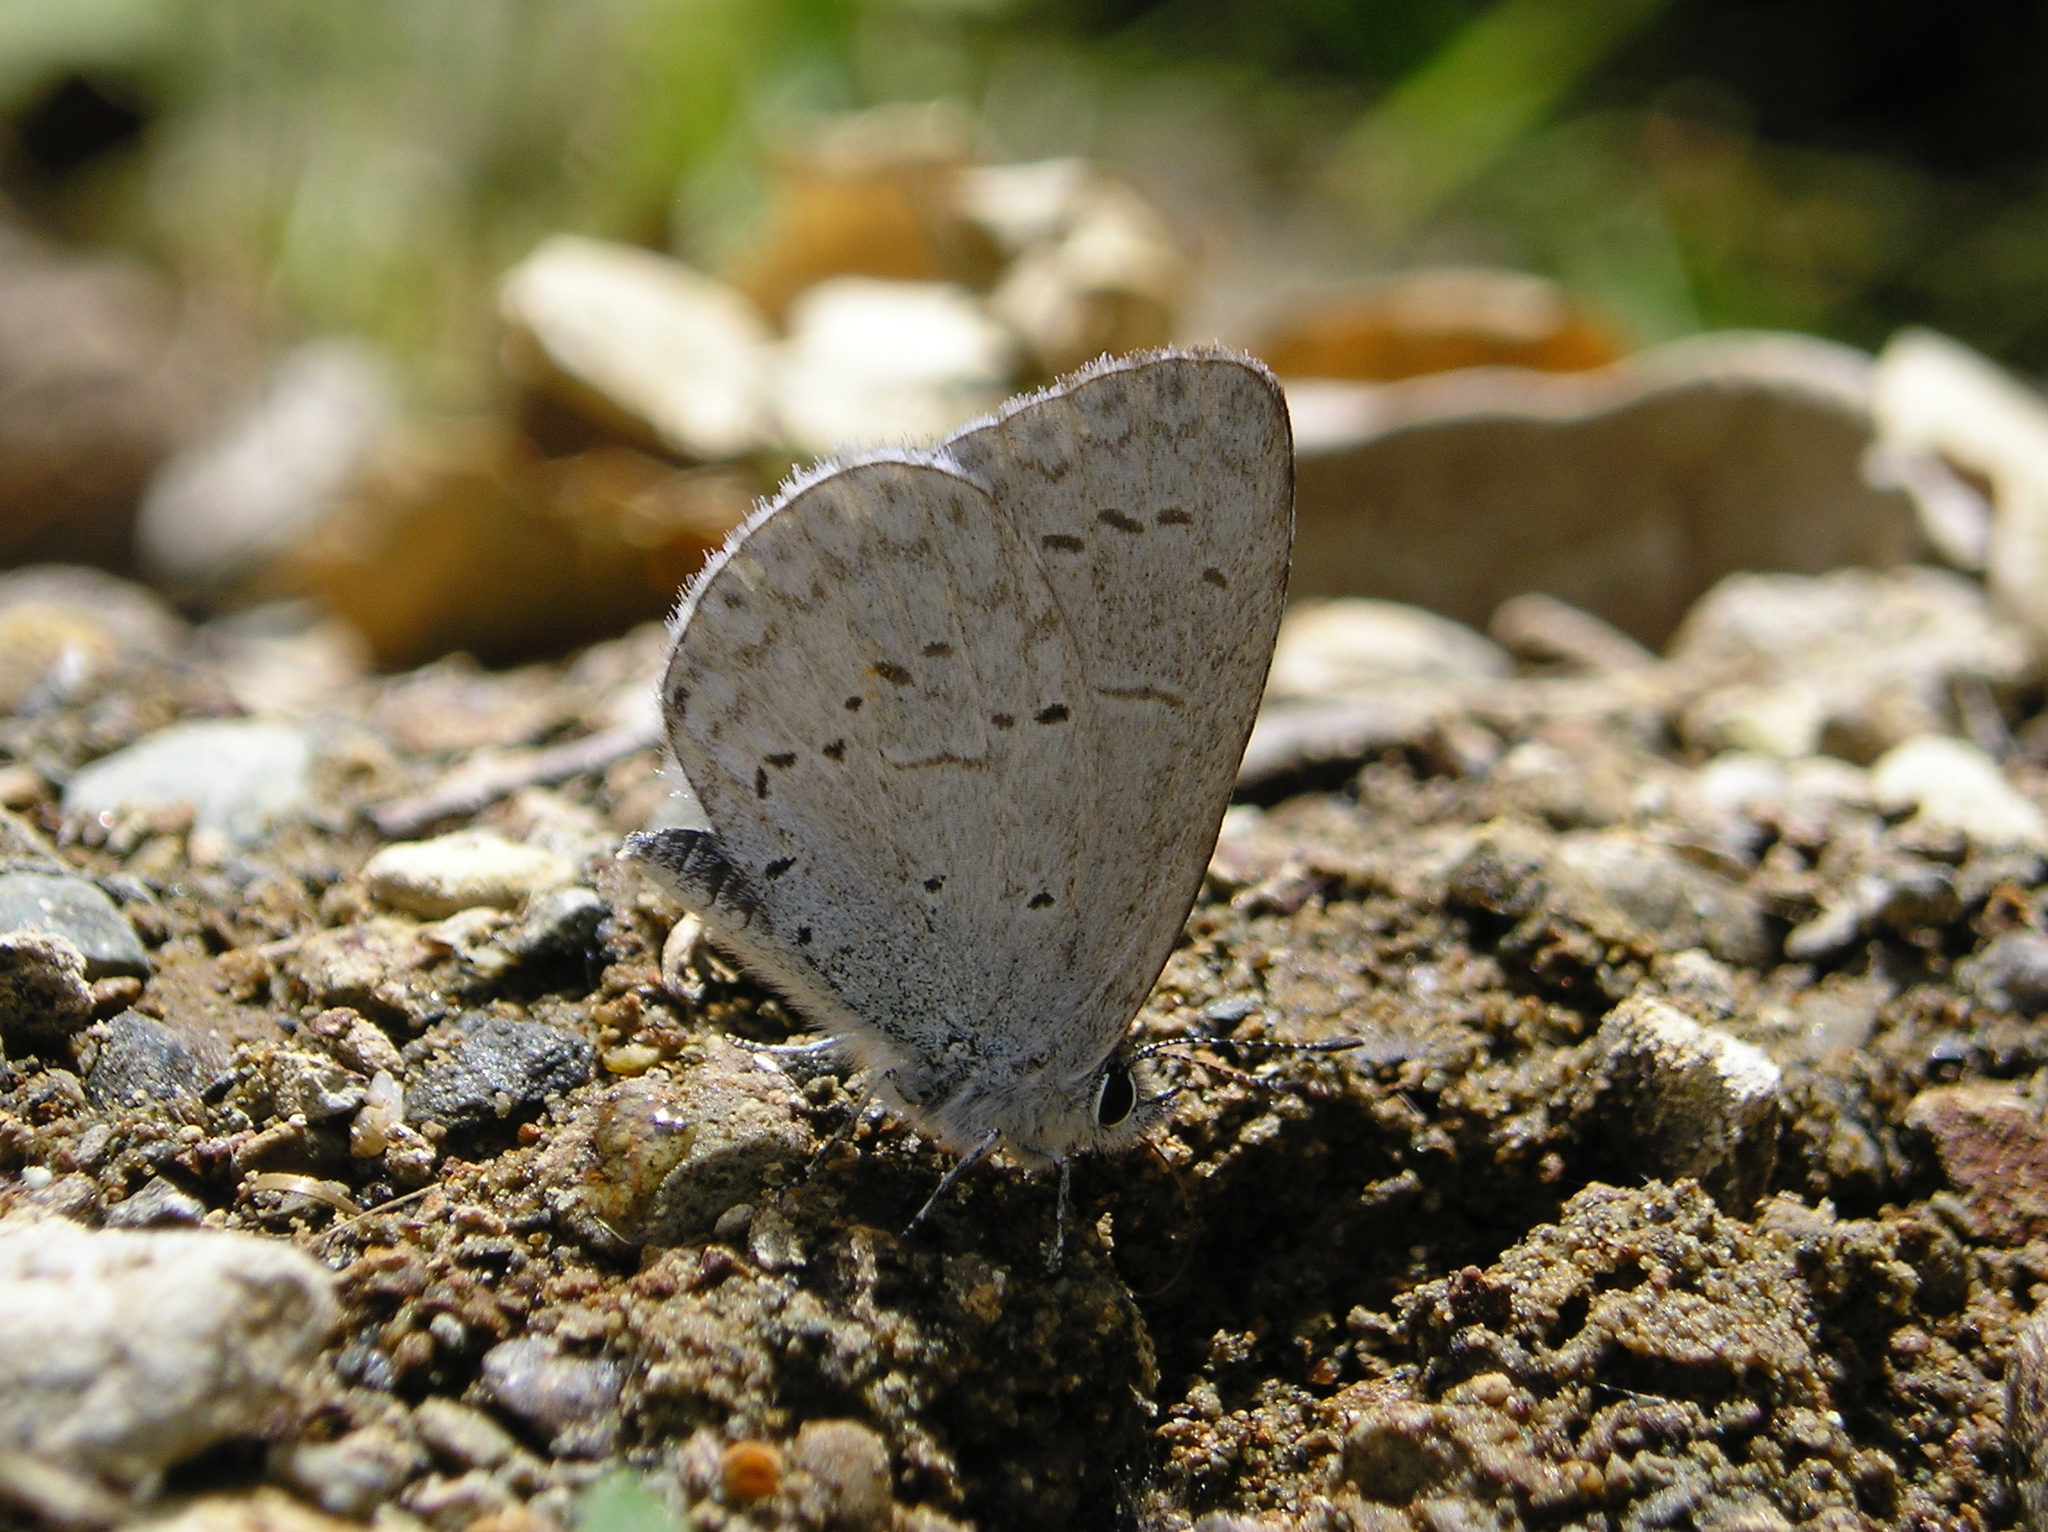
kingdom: Animalia
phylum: Arthropoda
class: Insecta
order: Lepidoptera
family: Lycaenidae
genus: Celastrina
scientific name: Celastrina ladon
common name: Spring azure
